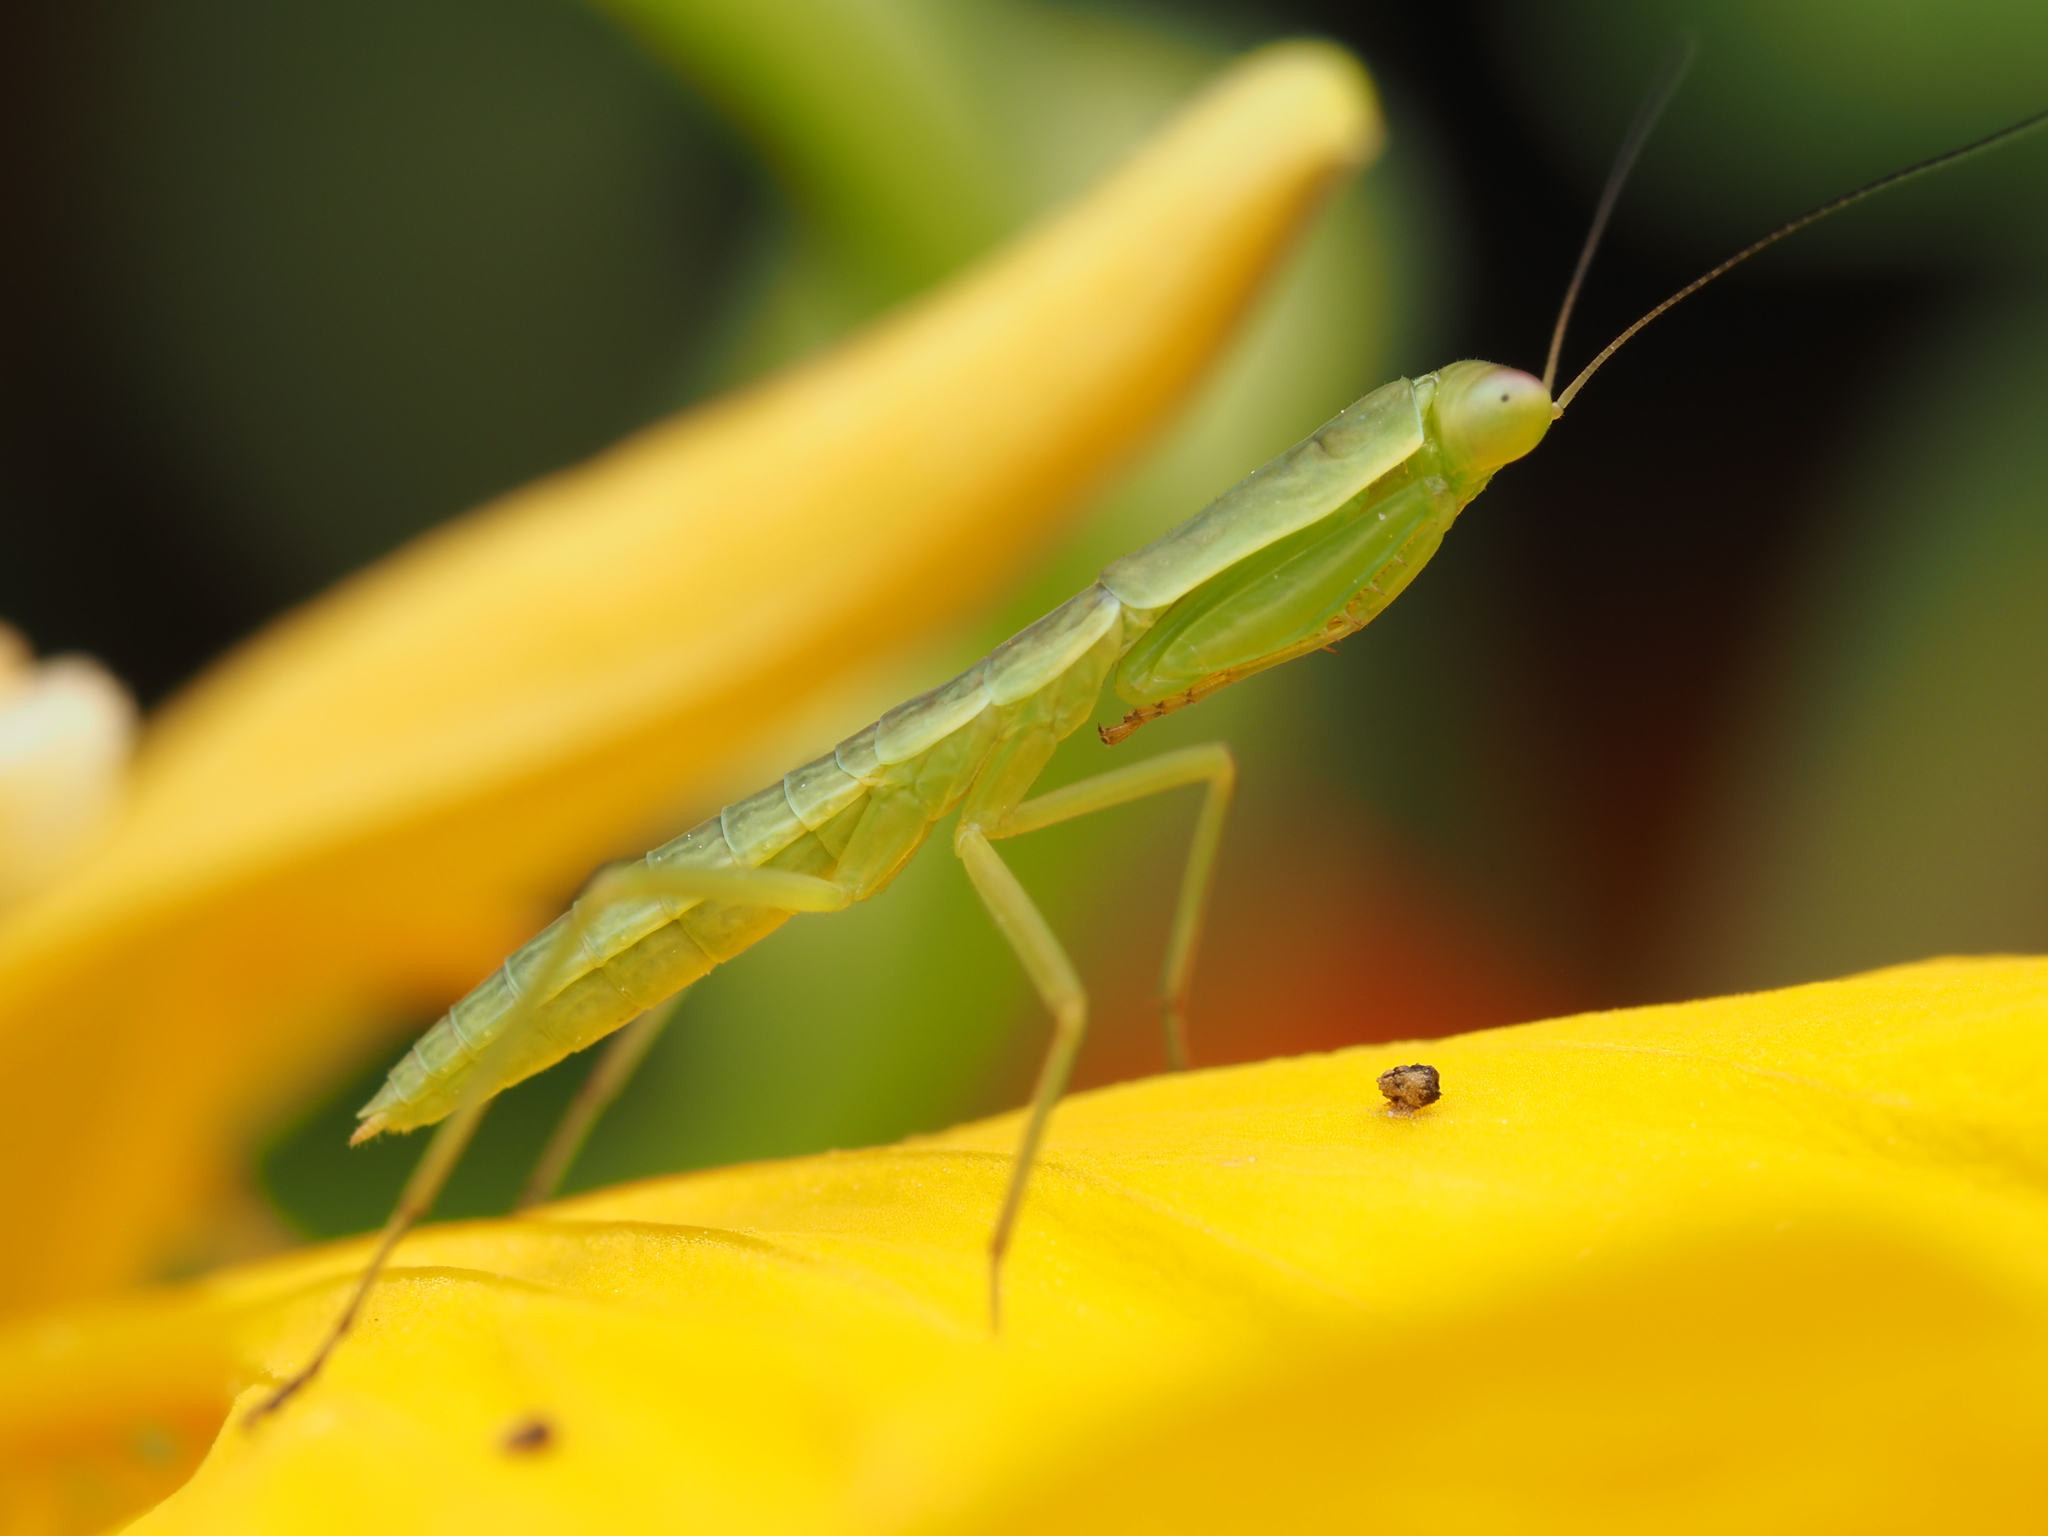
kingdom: Animalia
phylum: Arthropoda
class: Insecta
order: Mantodea
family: Mantidae
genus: Orthodera
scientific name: Orthodera novaezealandiae
